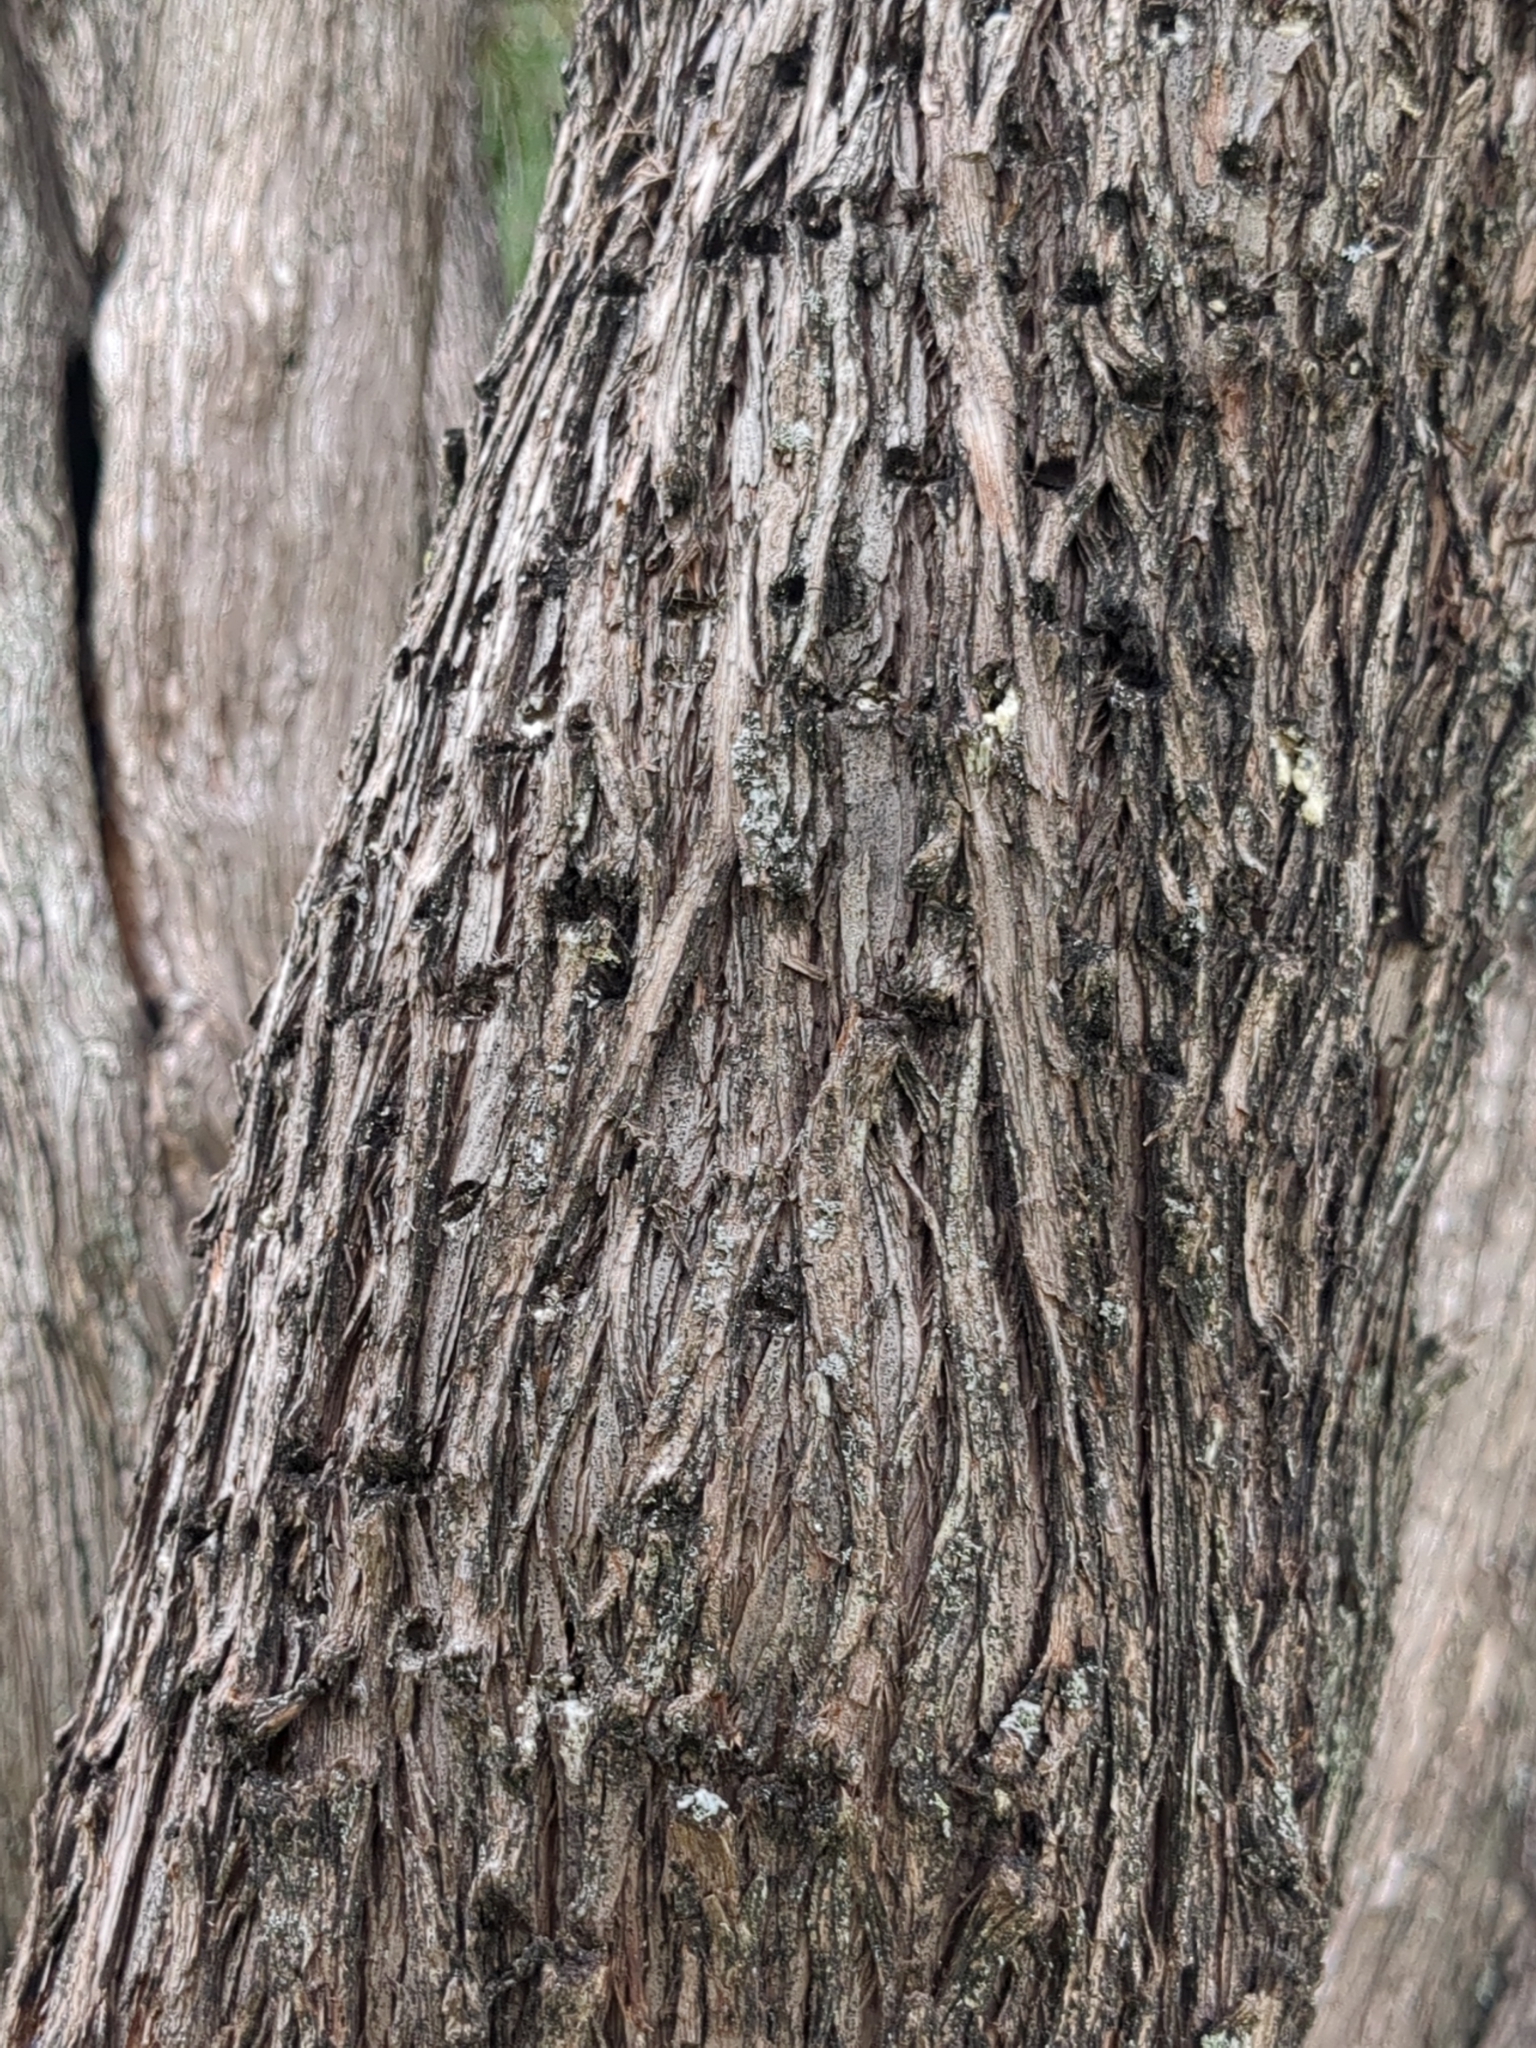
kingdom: Animalia
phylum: Chordata
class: Aves
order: Piciformes
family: Picidae
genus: Sphyrapicus
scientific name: Sphyrapicus varius
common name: Yellow-bellied sapsucker
